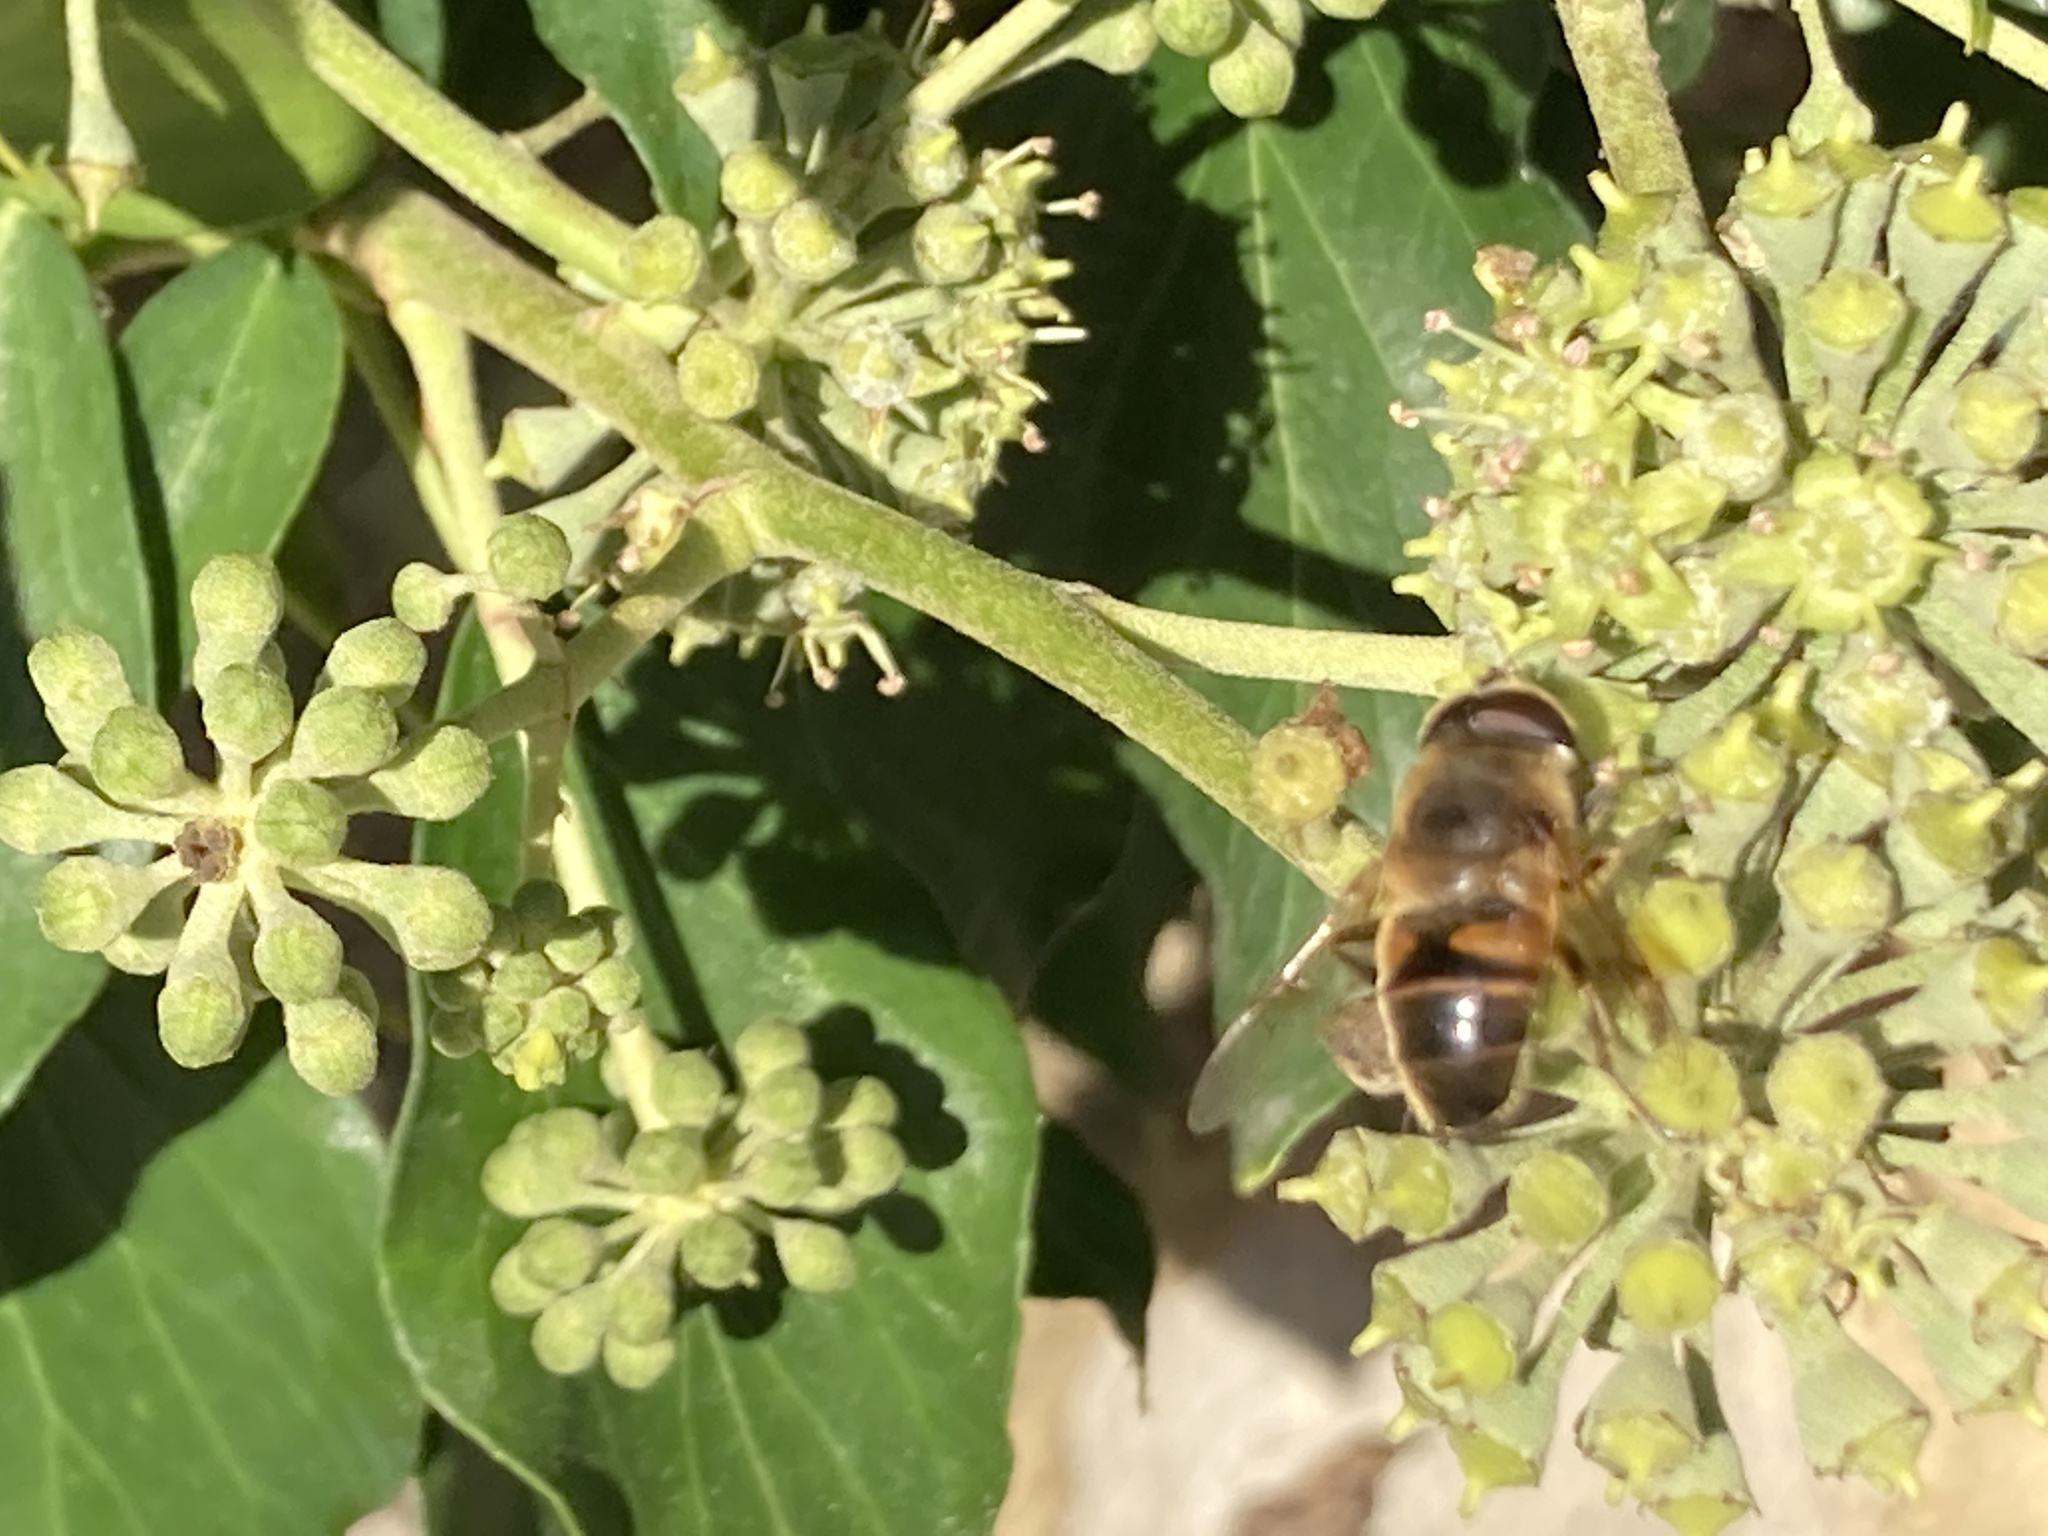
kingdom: Animalia
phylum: Arthropoda
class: Insecta
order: Diptera
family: Syrphidae
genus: Eristalis
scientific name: Eristalis tenax
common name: Drone fly
